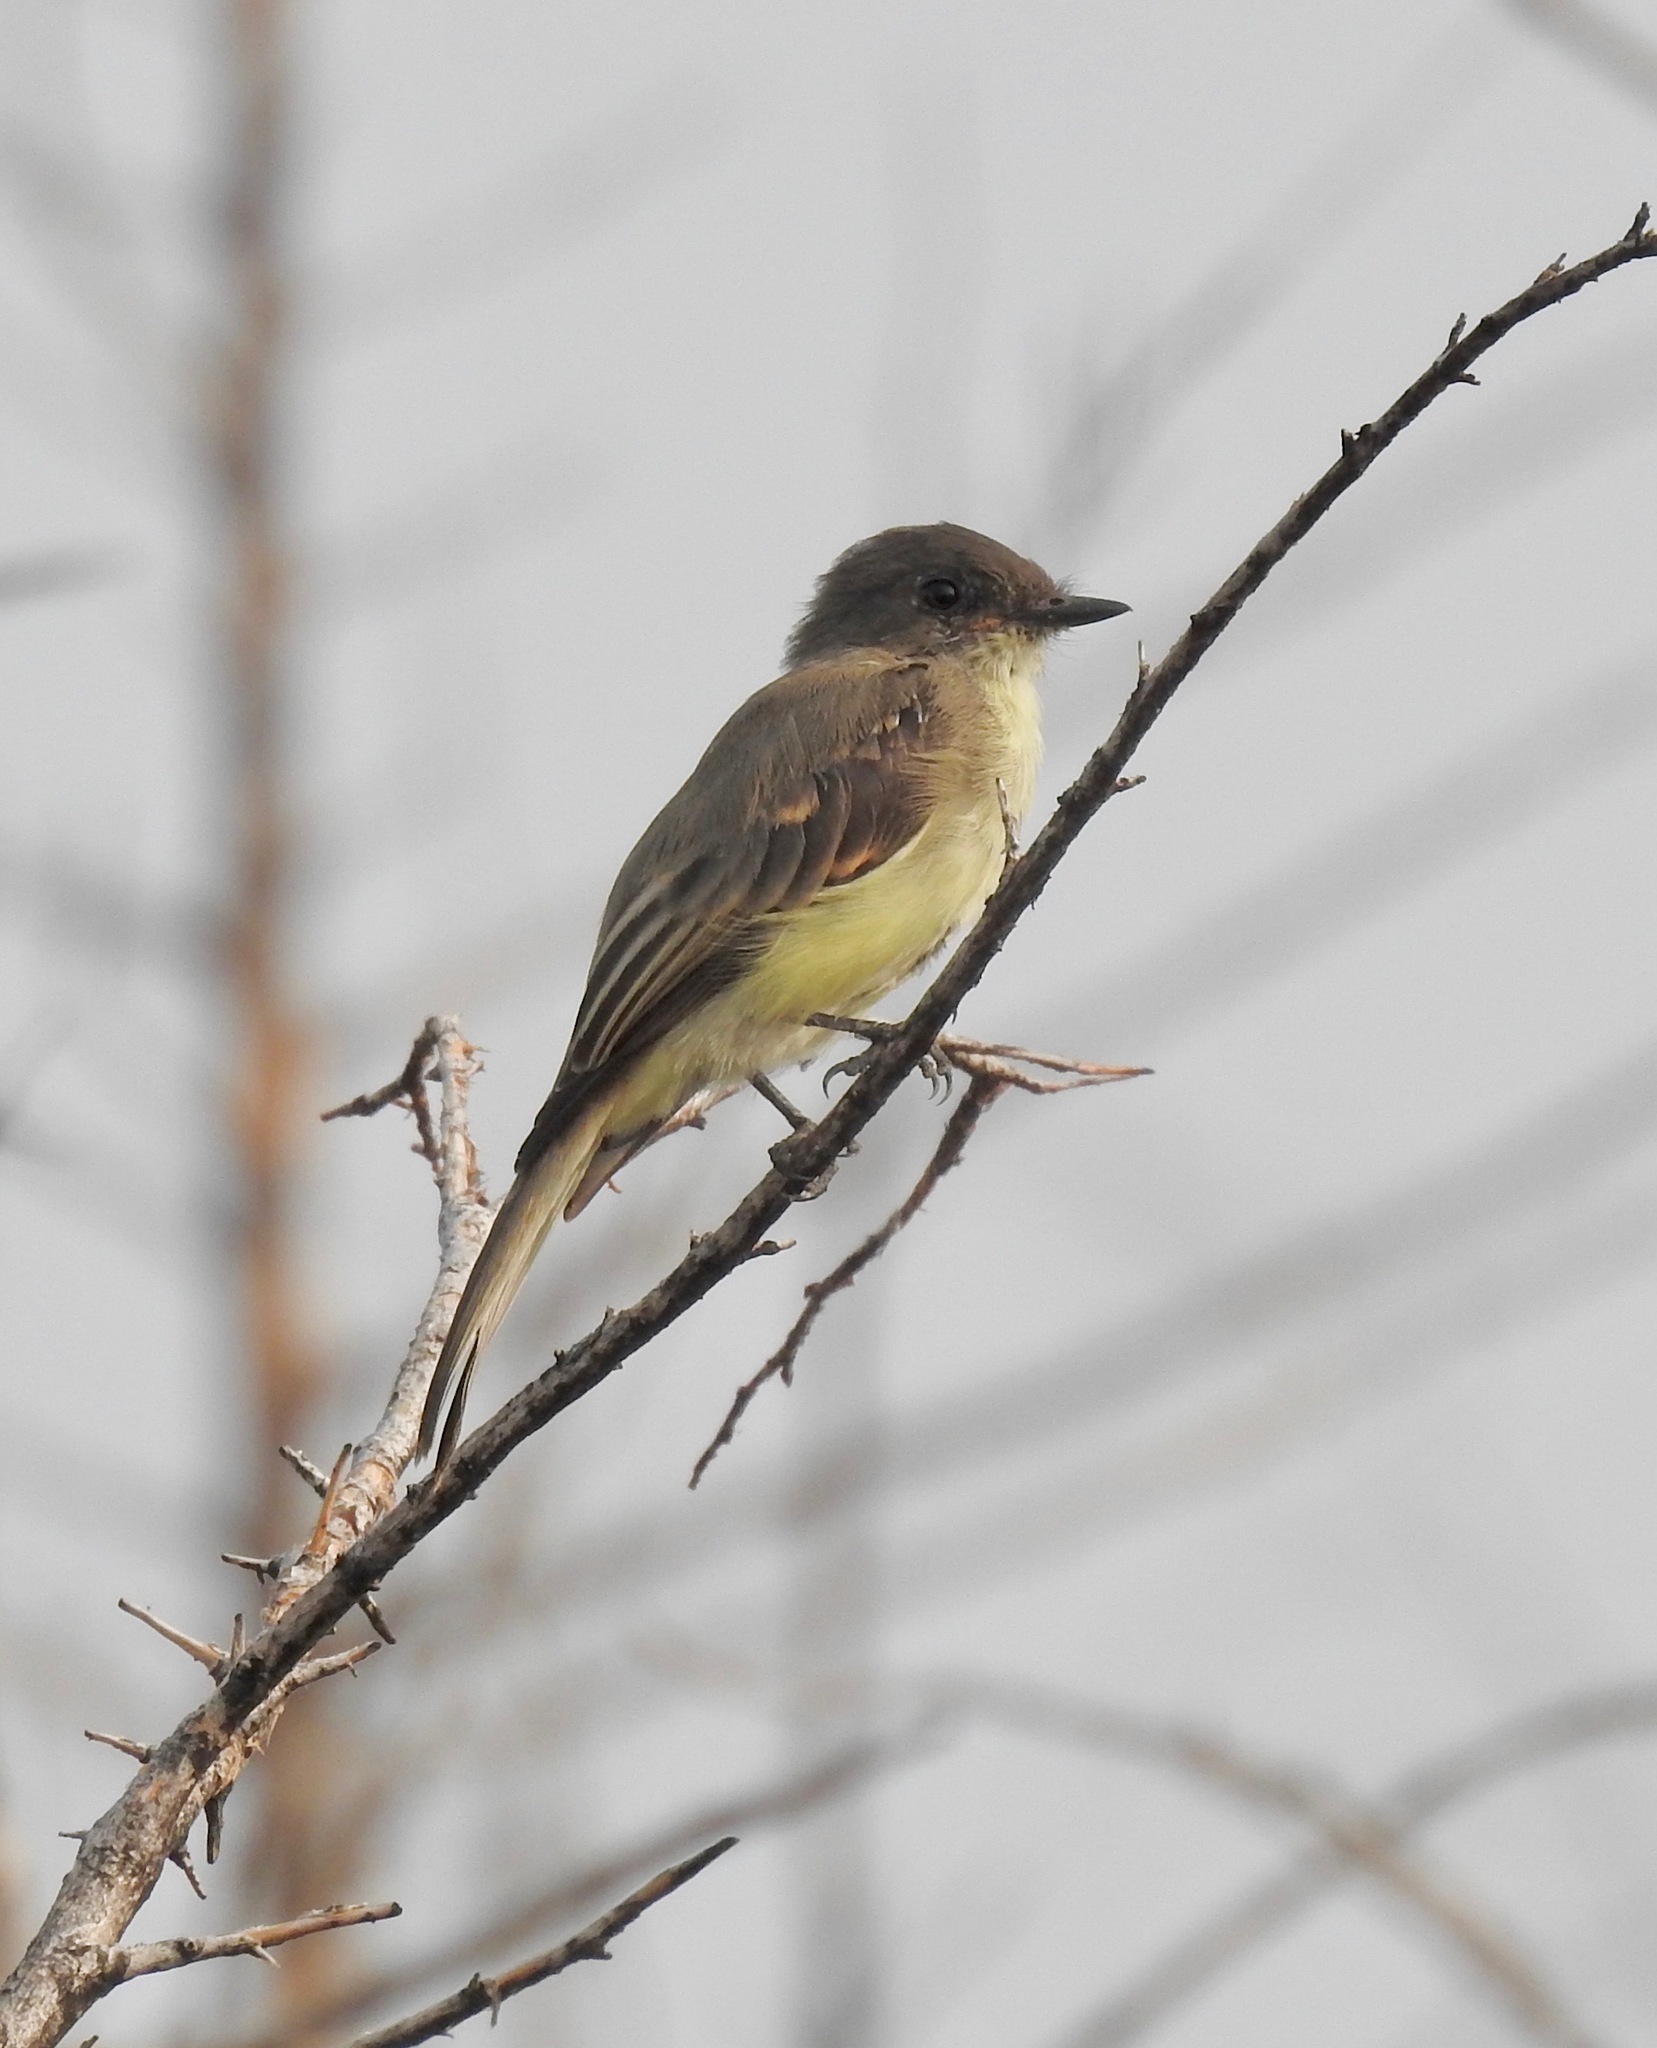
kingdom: Animalia
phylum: Chordata
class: Aves
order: Passeriformes
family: Tyrannidae
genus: Sayornis
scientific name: Sayornis phoebe
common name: Eastern phoebe
